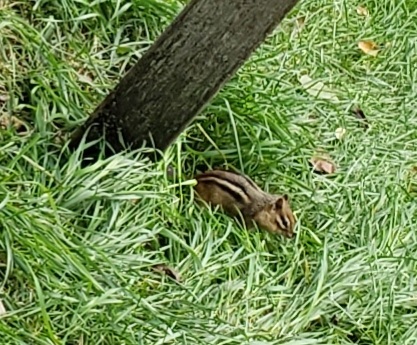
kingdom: Animalia
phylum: Chordata
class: Mammalia
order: Rodentia
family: Sciuridae
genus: Tamias
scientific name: Tamias striatus
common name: Eastern chipmunk
